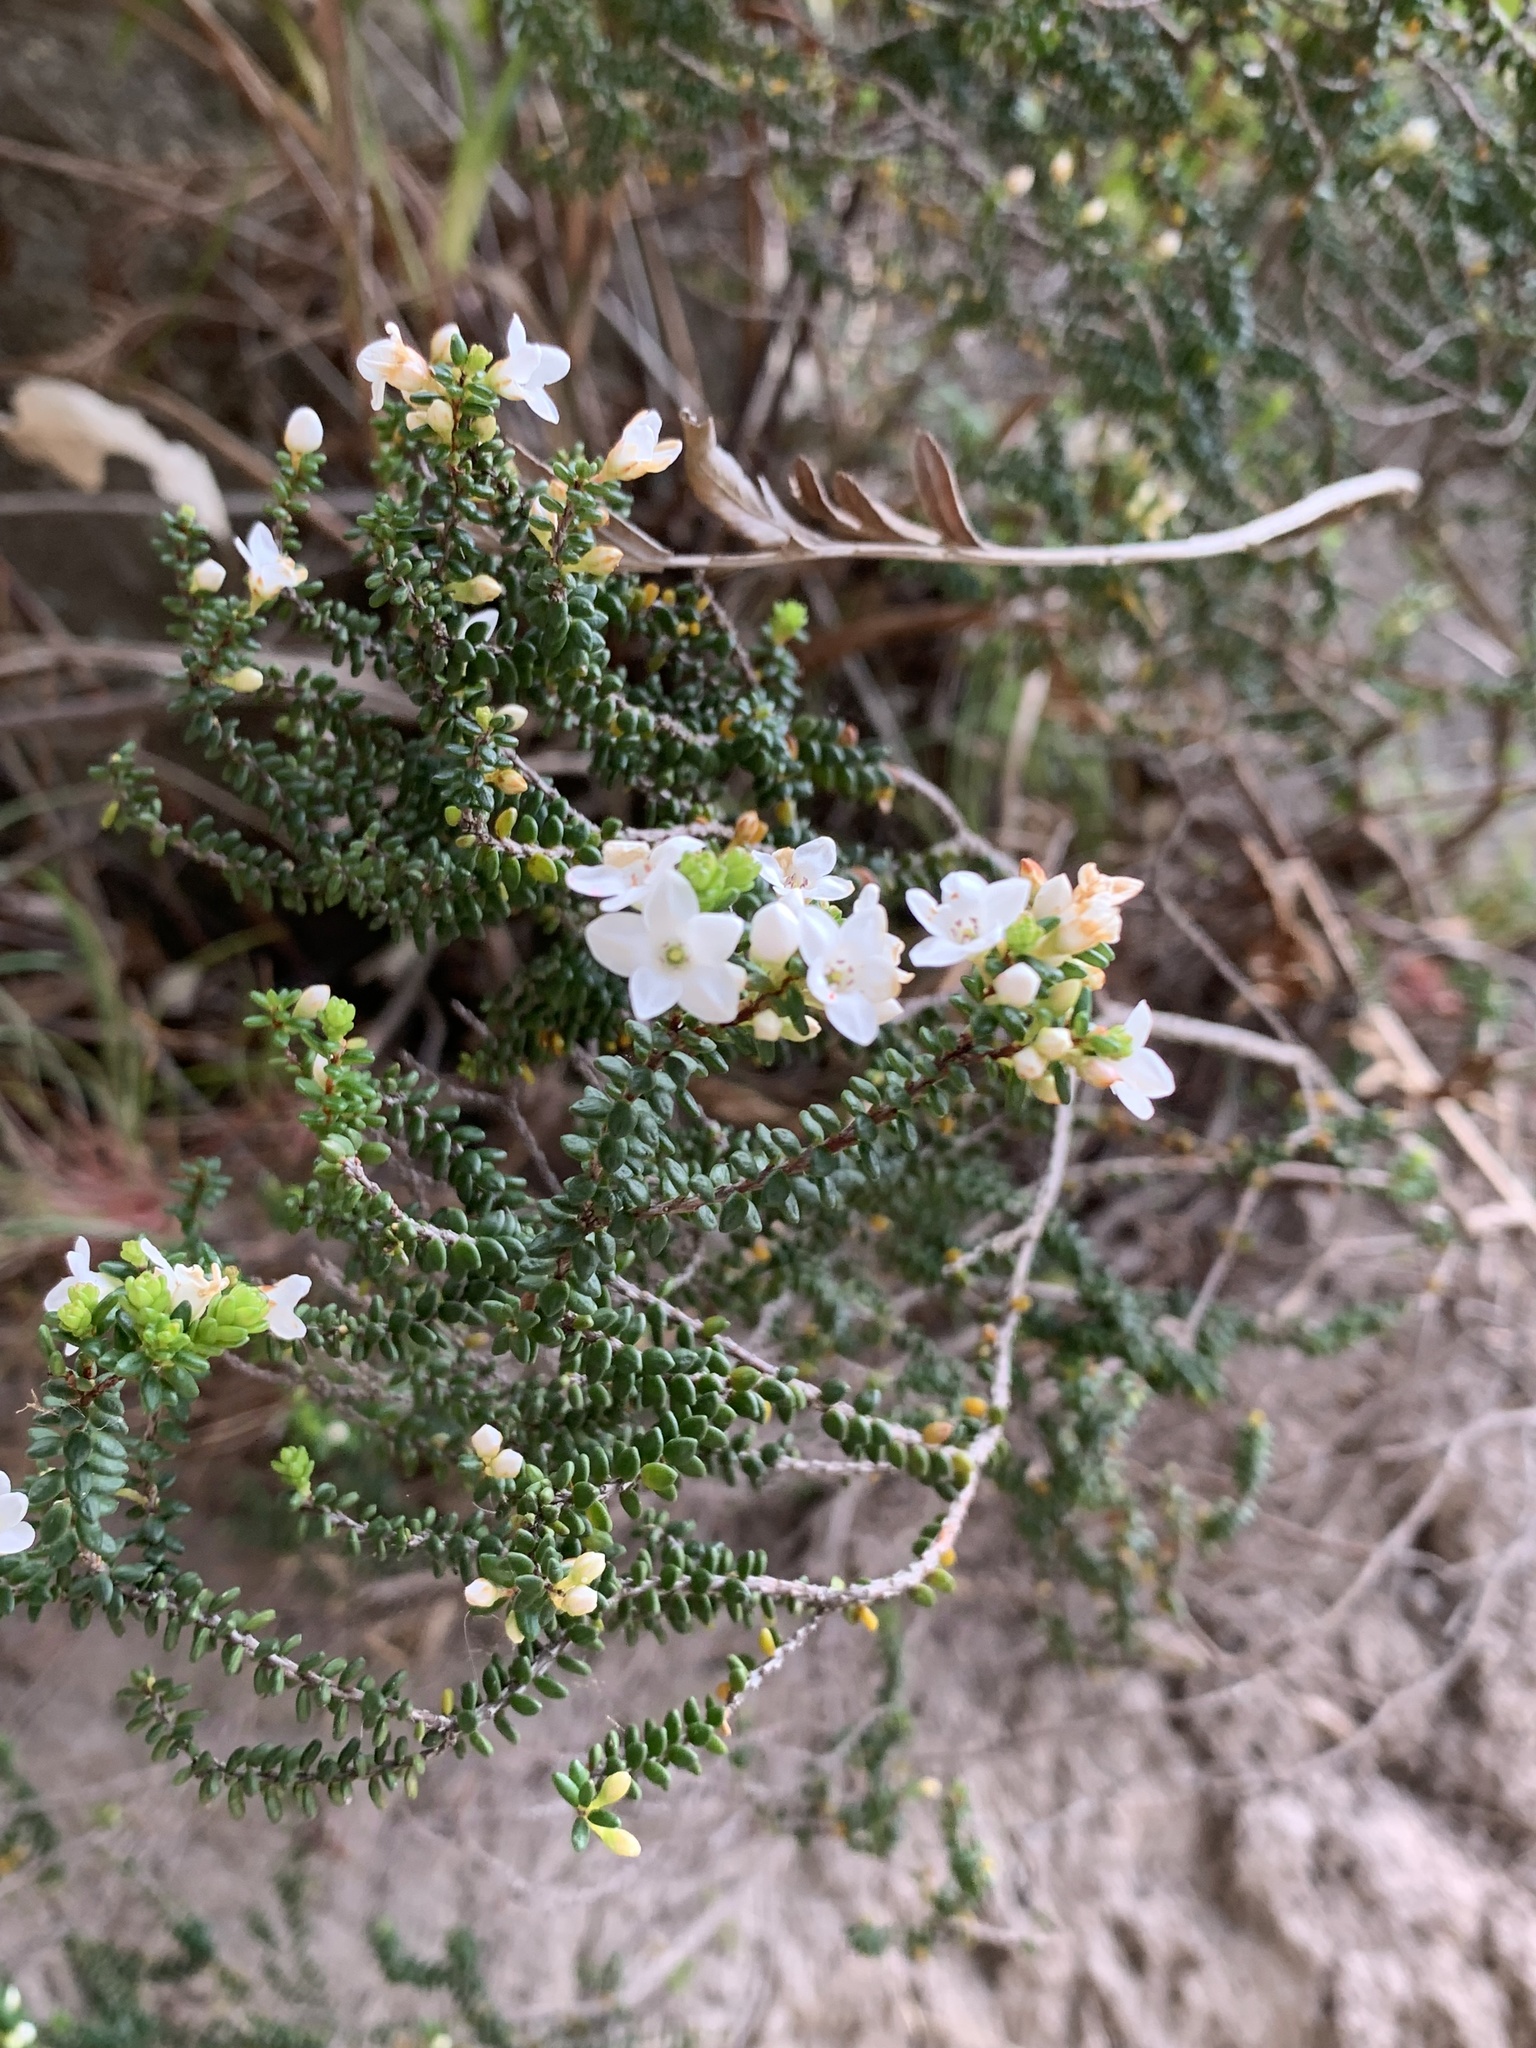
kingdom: Plantae
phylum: Tracheophyta
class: Magnoliopsida
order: Ericales
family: Ericaceae
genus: Epacris
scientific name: Epacris muelleri
